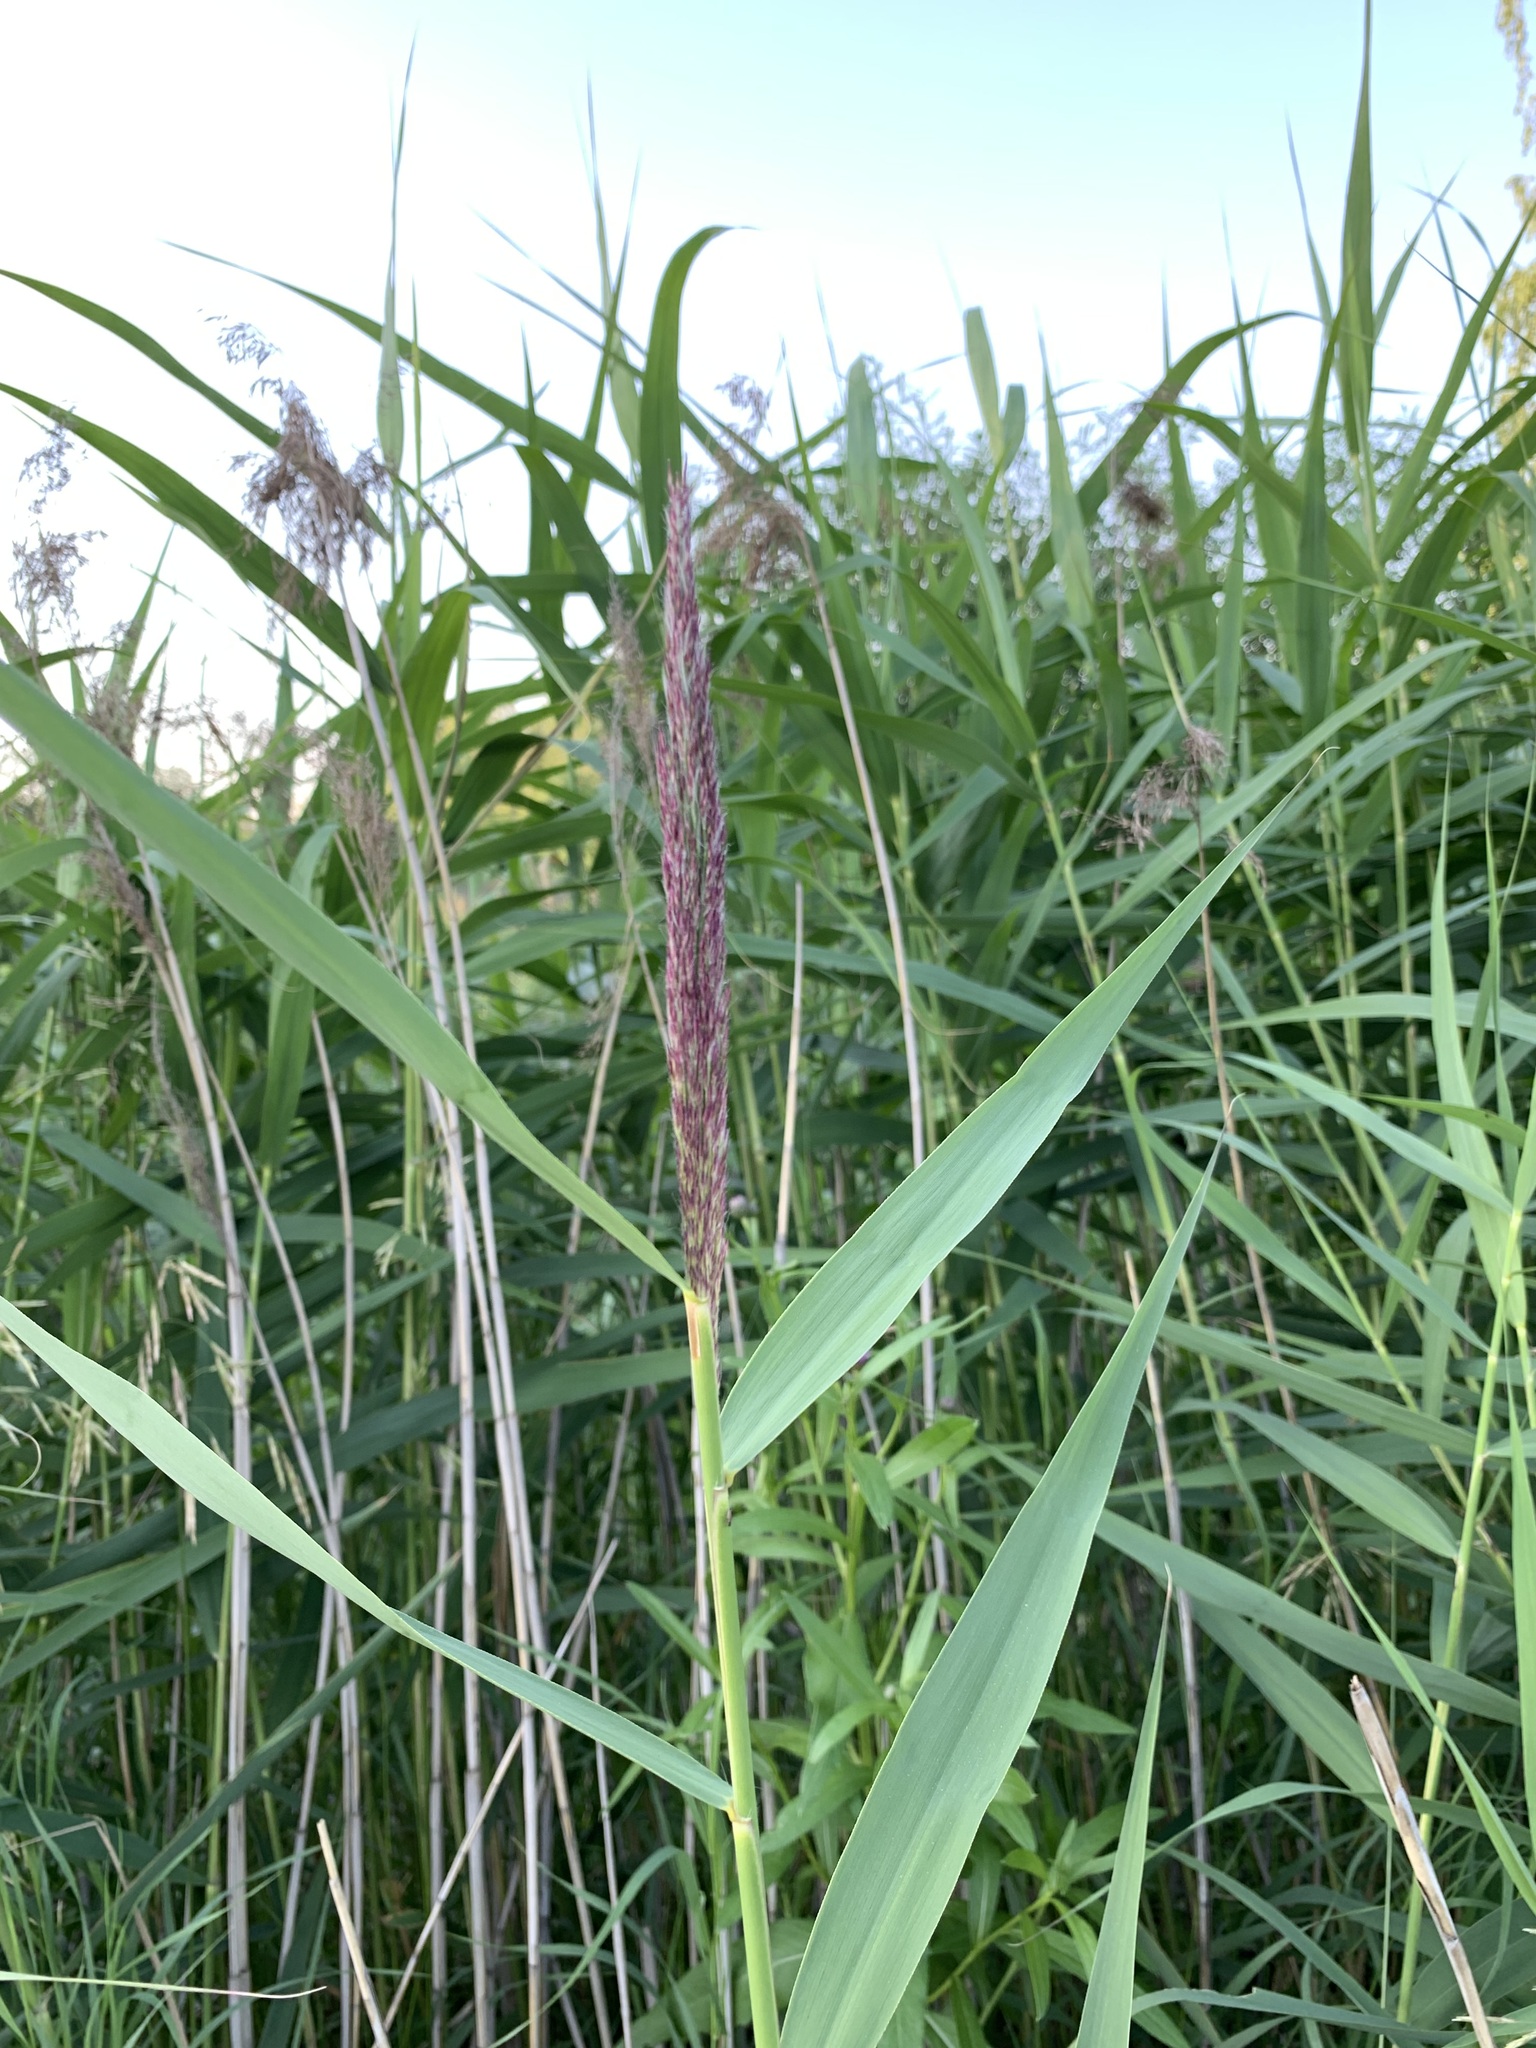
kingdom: Plantae
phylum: Tracheophyta
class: Liliopsida
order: Poales
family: Poaceae
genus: Phragmites
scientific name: Phragmites australis
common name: Common reed
